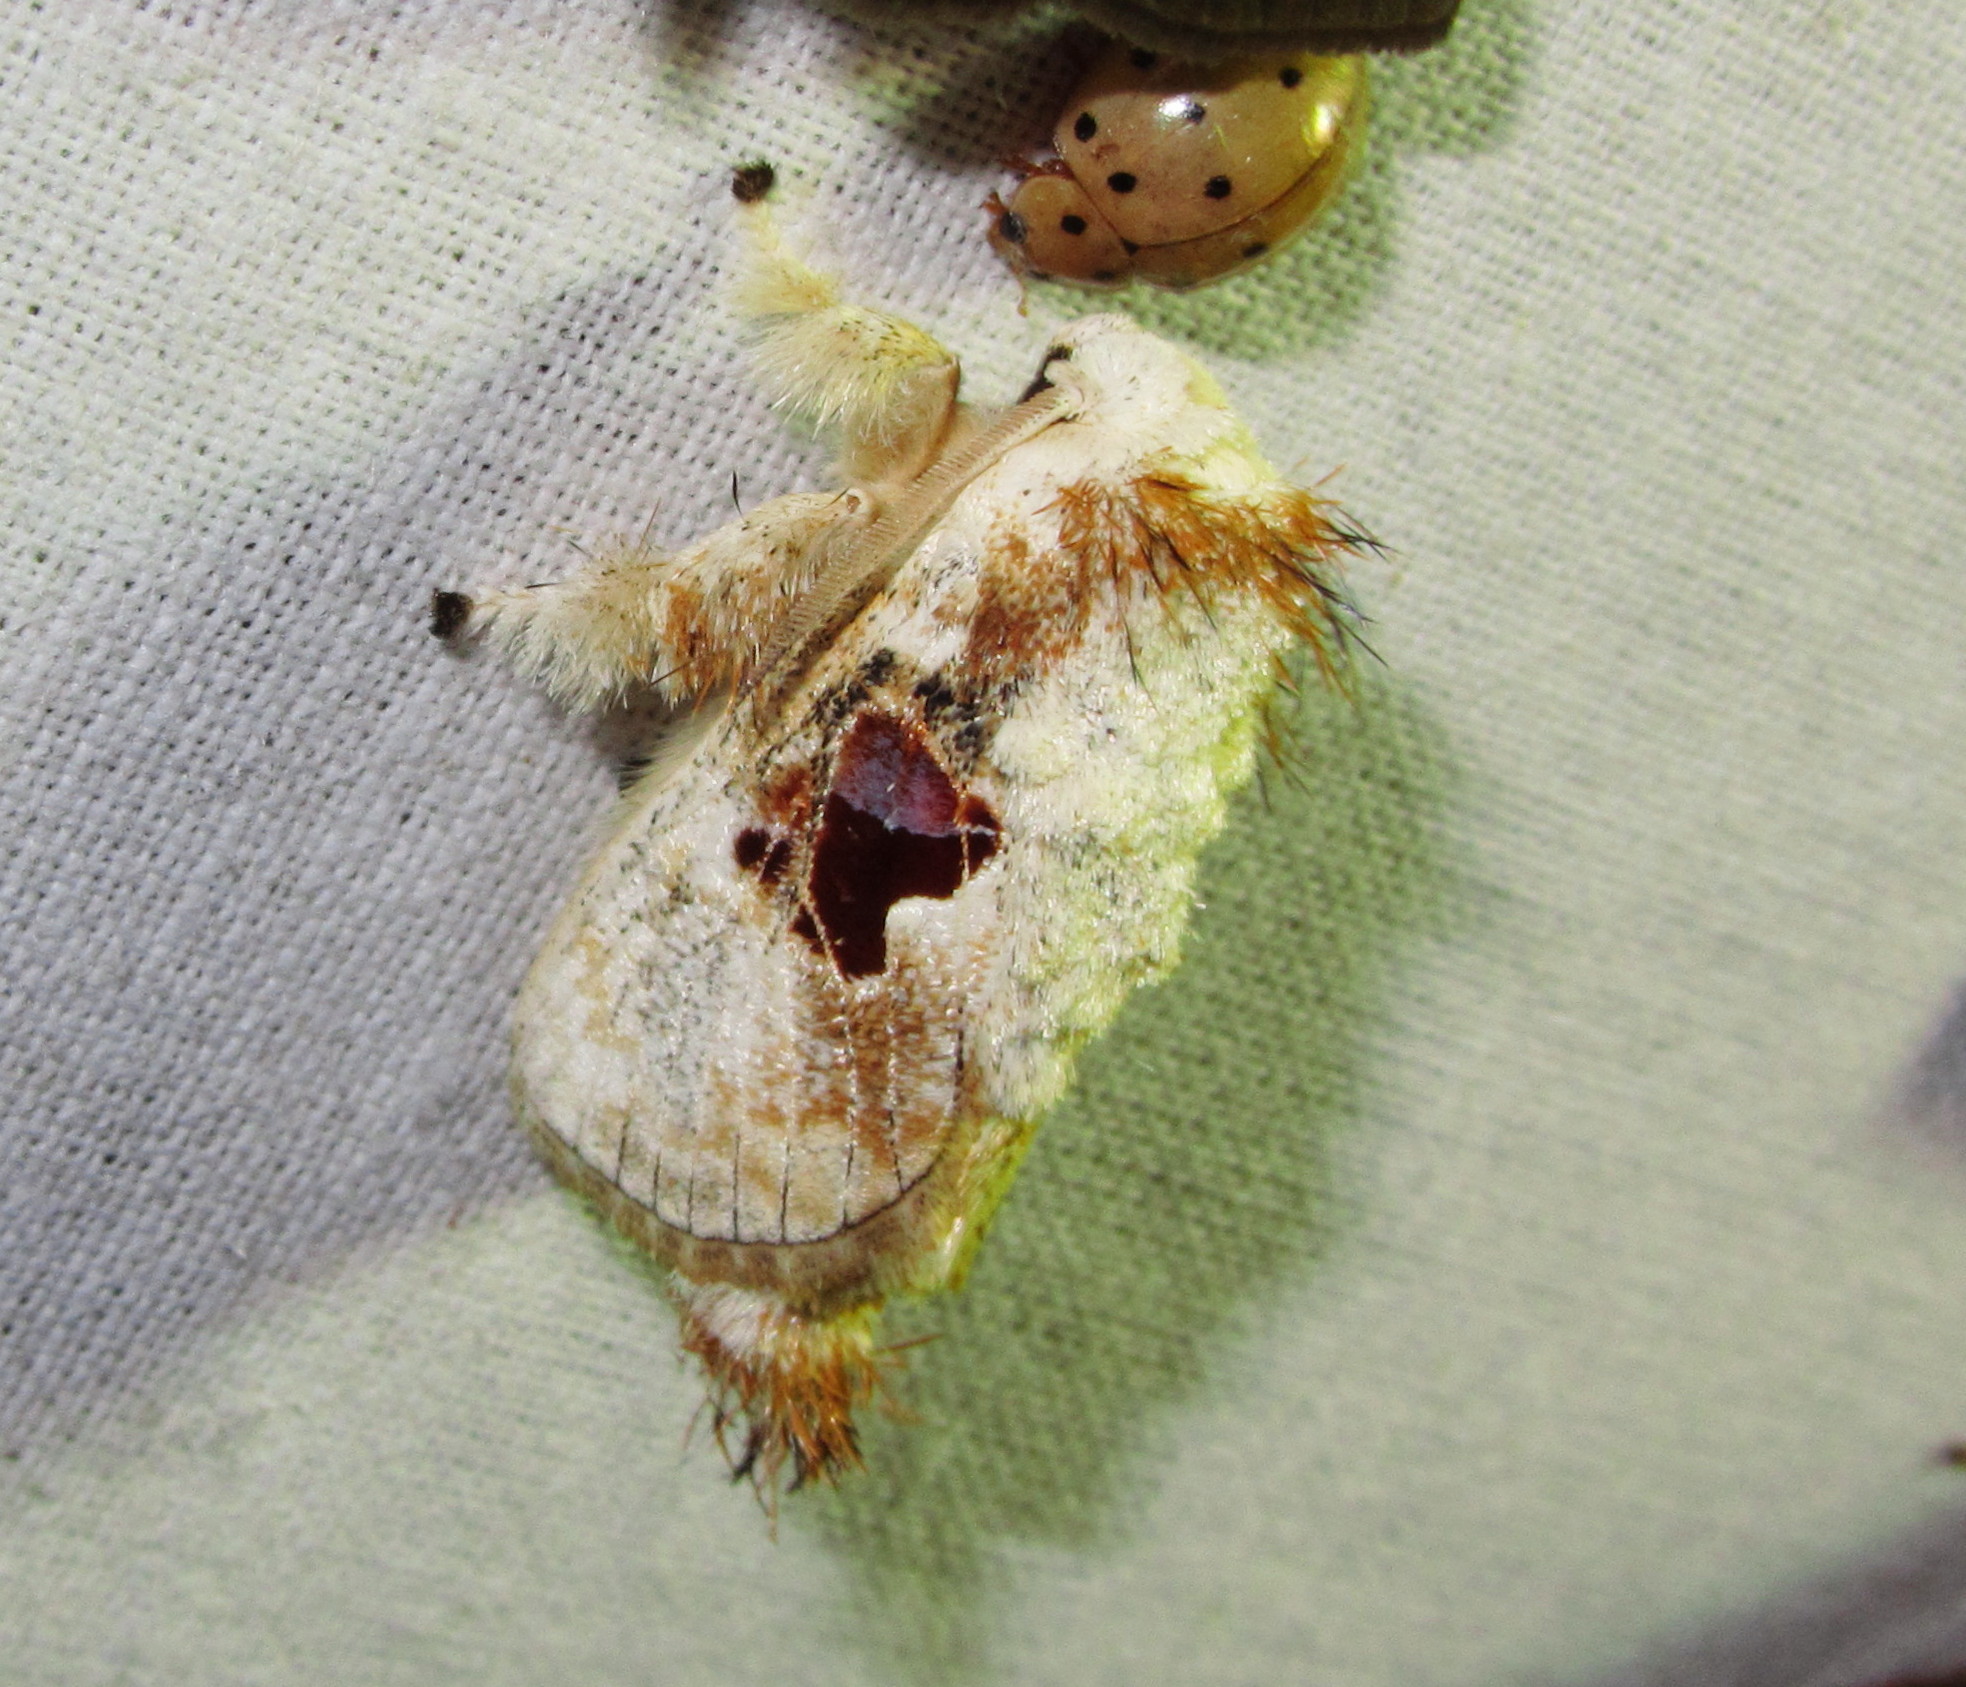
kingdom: Animalia
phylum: Arthropoda
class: Insecta
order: Lepidoptera
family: Limacodidae
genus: Chalcoscelides
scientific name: Chalcoscelides castaneipars
